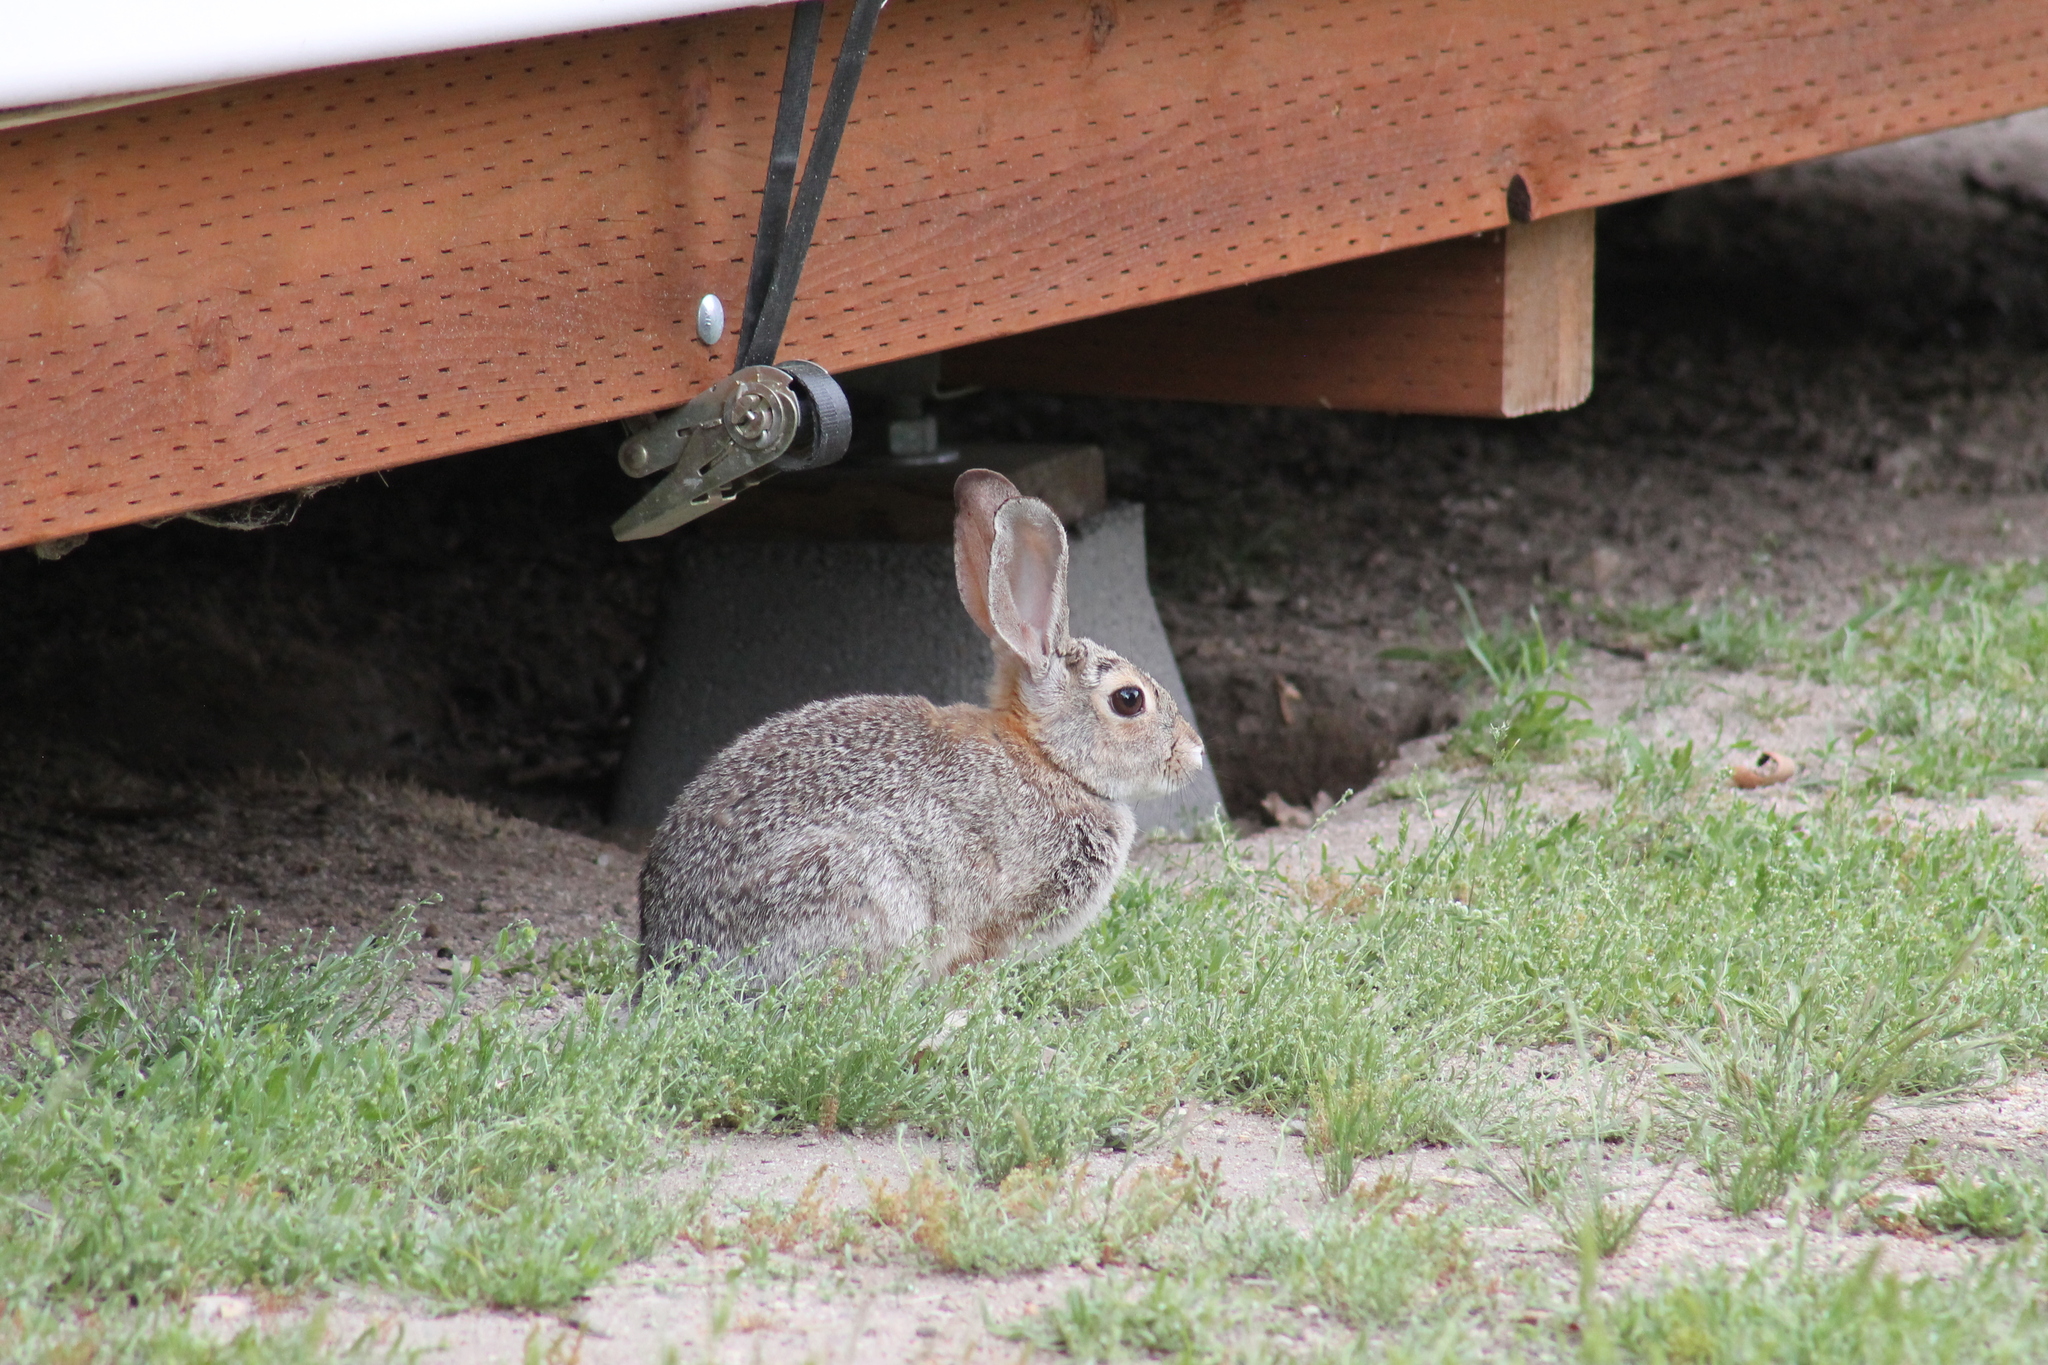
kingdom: Animalia
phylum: Chordata
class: Mammalia
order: Lagomorpha
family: Leporidae
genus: Sylvilagus
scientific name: Sylvilagus audubonii
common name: Desert cottontail
